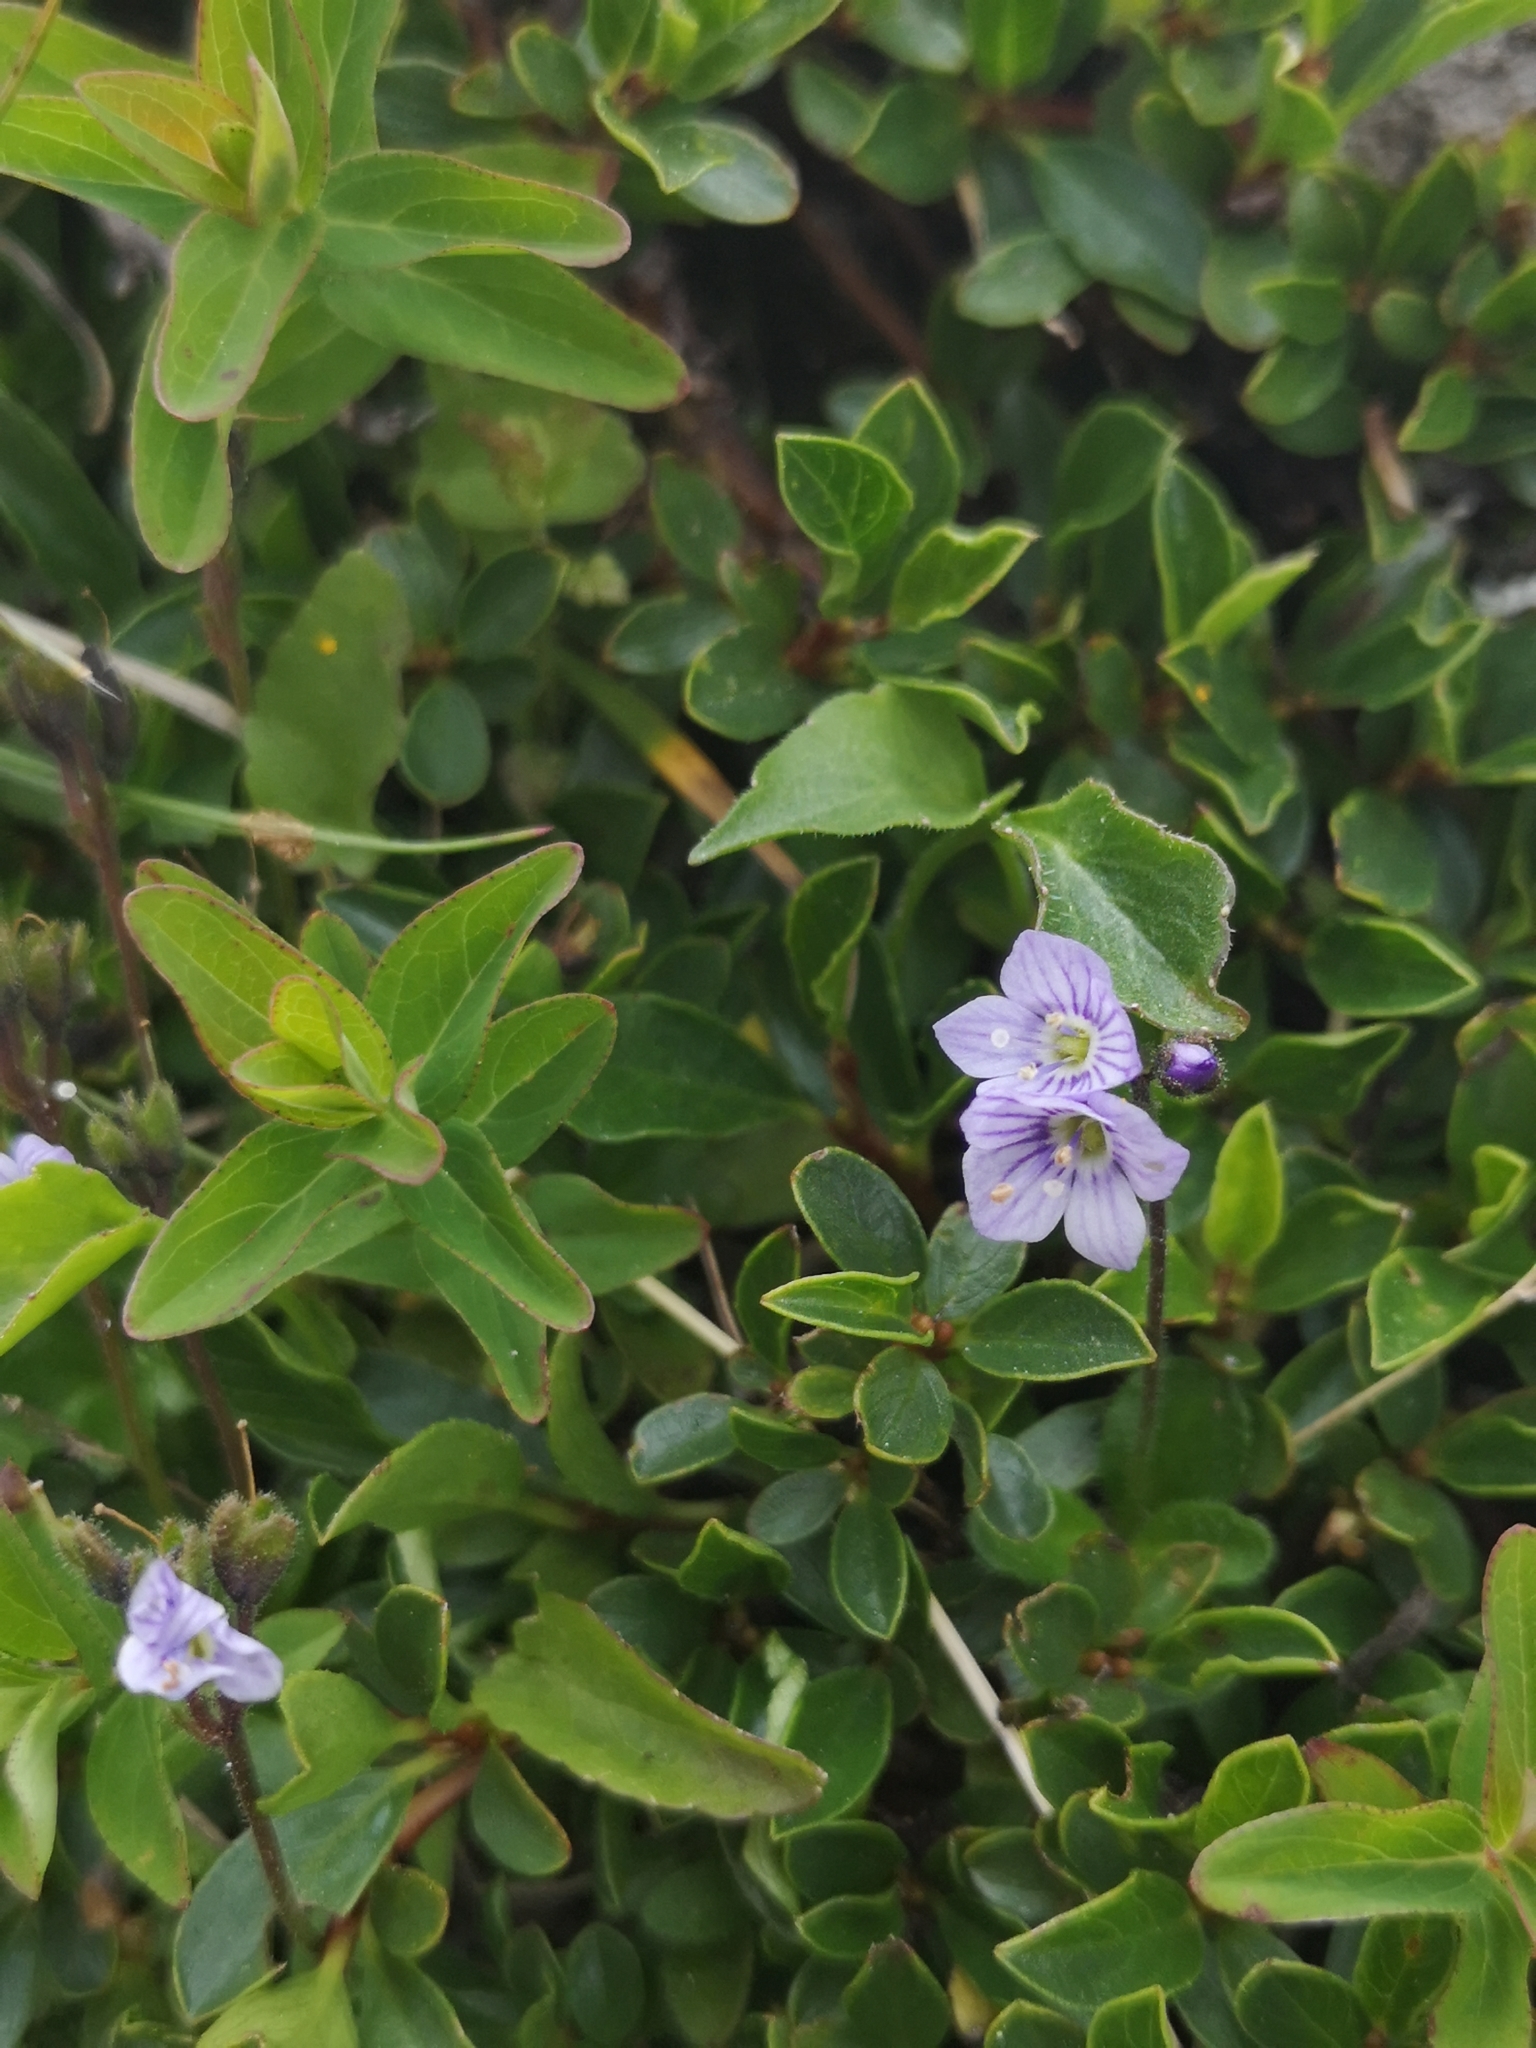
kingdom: Plantae
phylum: Tracheophyta
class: Magnoliopsida
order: Lamiales
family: Plantaginaceae
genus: Veronica
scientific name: Veronica aphylla
